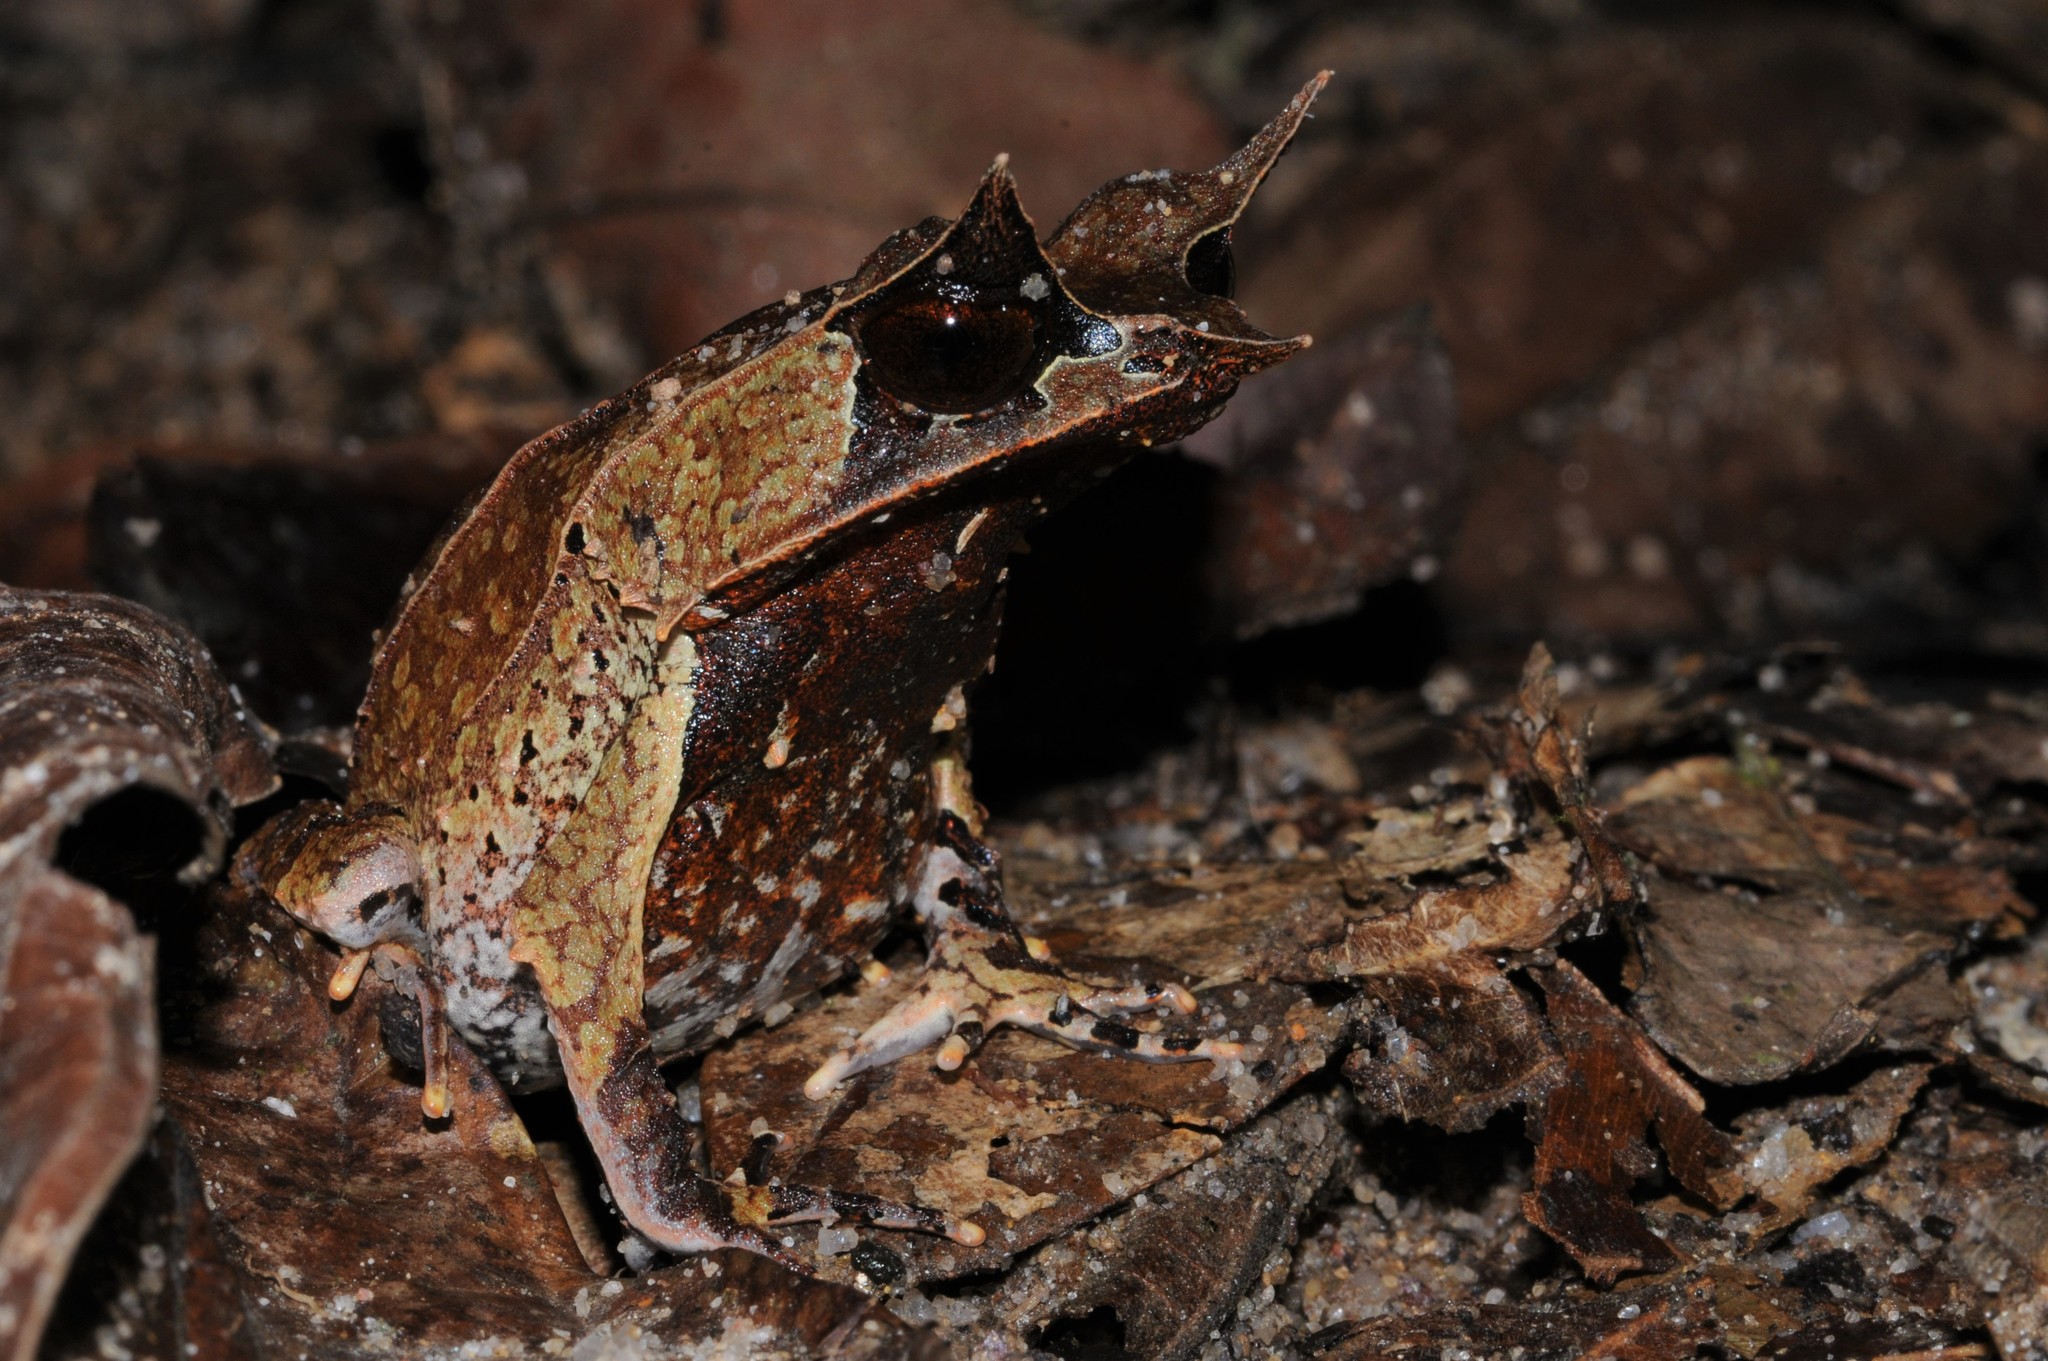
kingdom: Animalia
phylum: Chordata
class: Amphibia
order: Anura
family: Megophryidae
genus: Megophrys
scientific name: Megophrys nasuta
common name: Malayan horned frog
